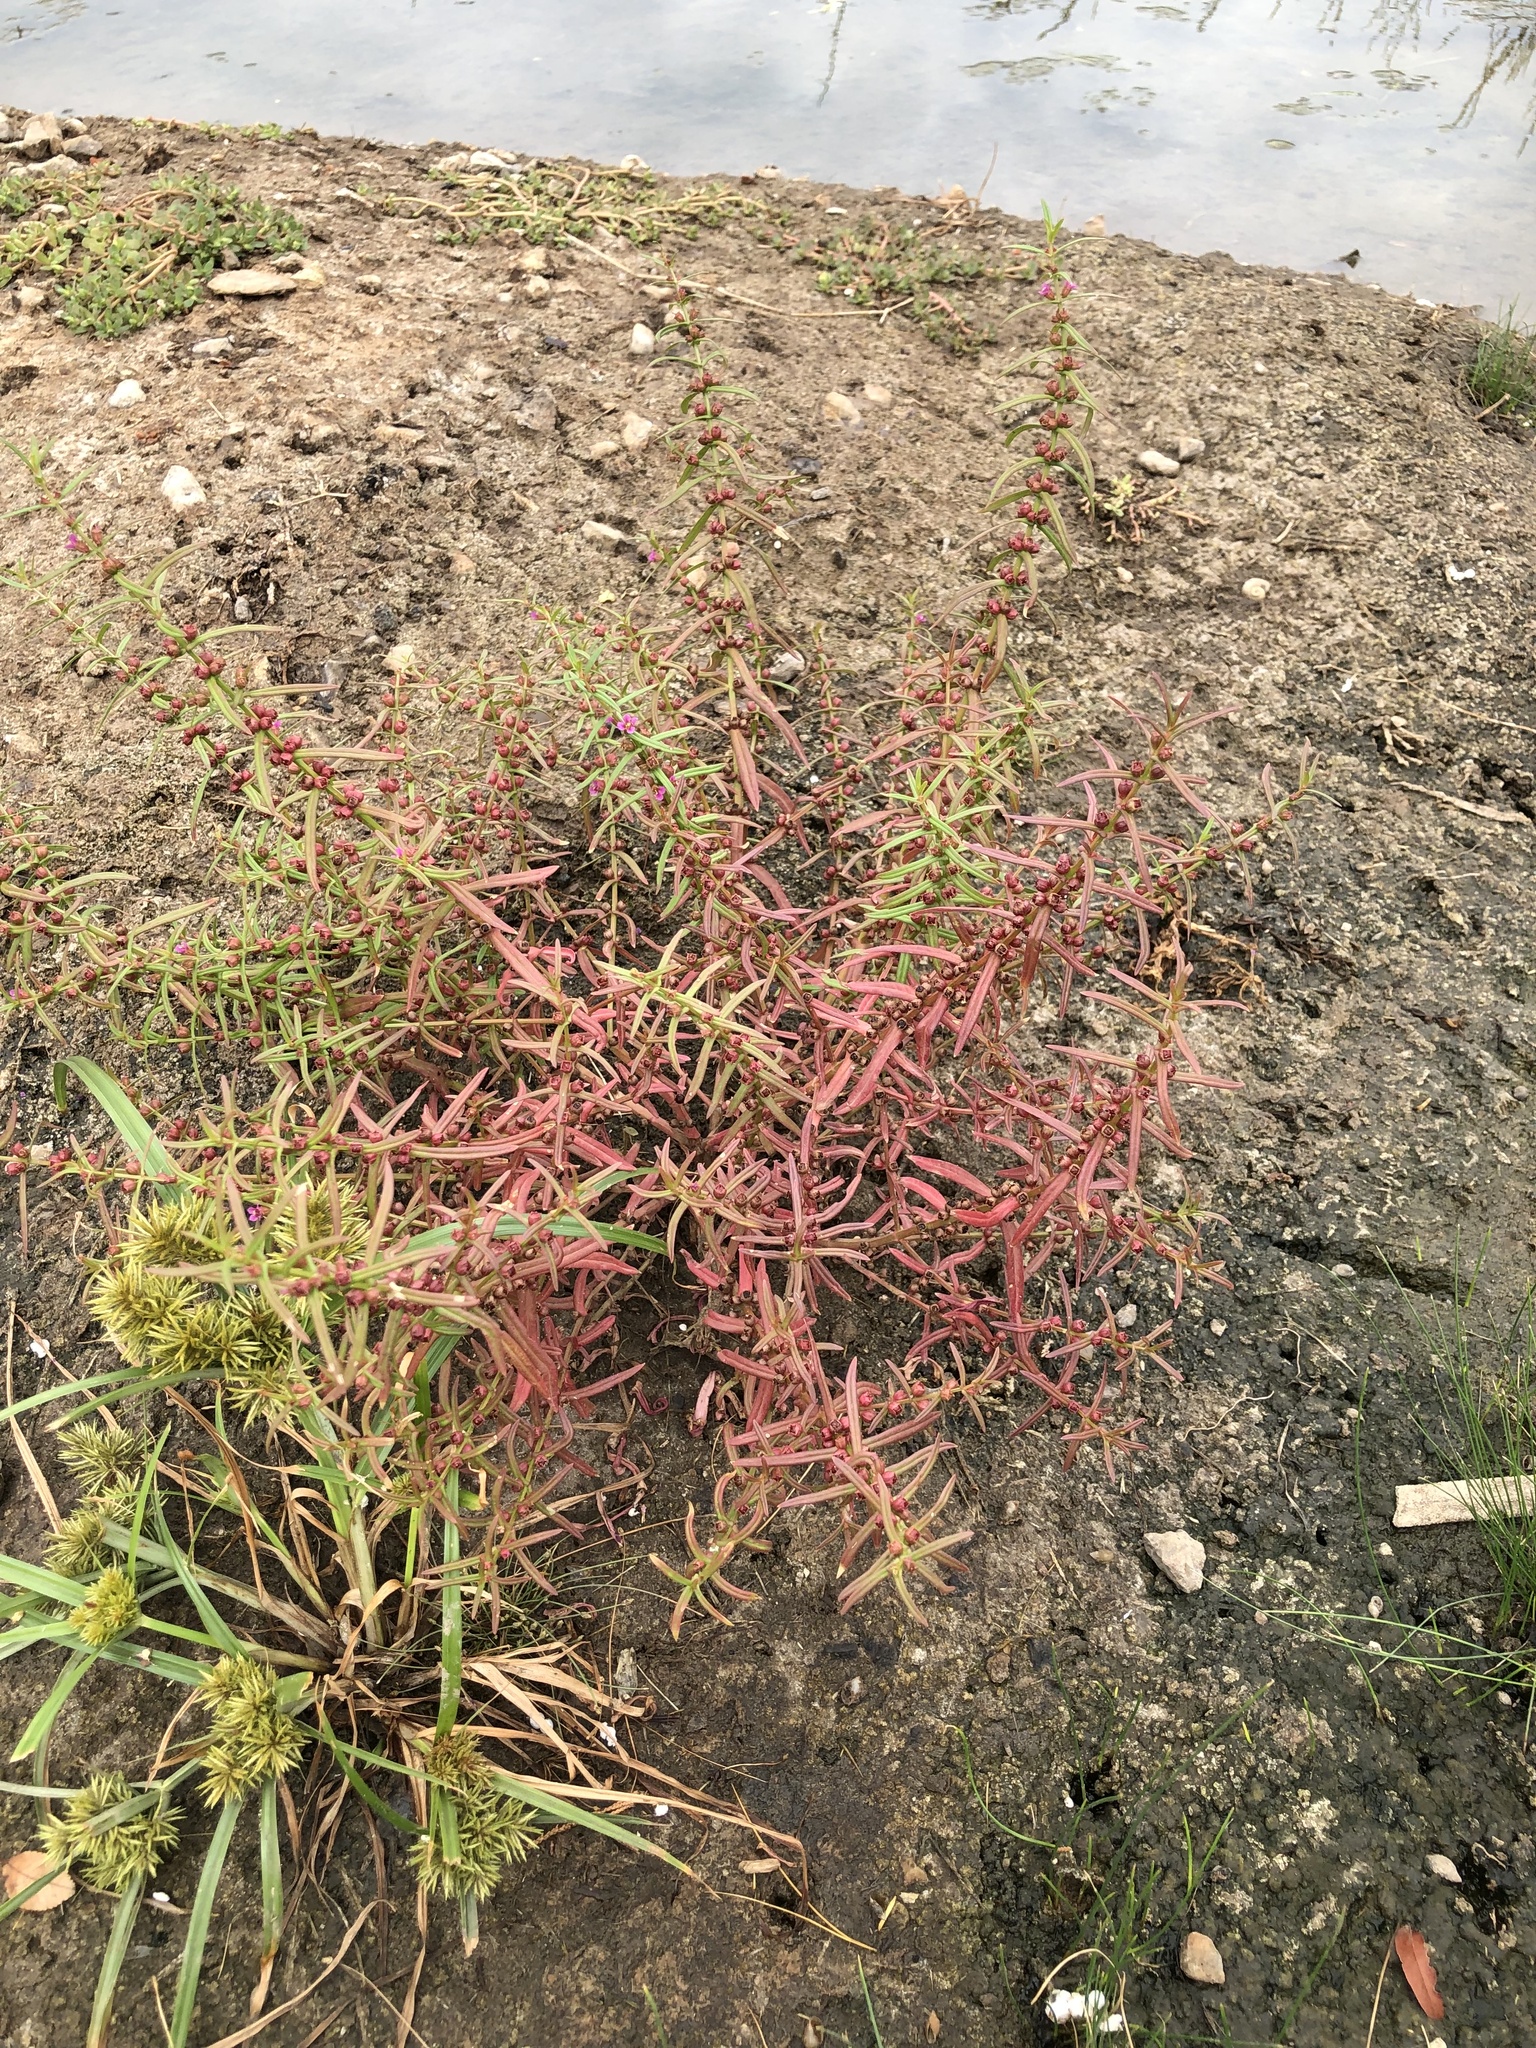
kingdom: Plantae
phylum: Tracheophyta
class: Magnoliopsida
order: Myrtales
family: Lythraceae
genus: Ammannia
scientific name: Ammannia coccinea
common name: Valley redstem
